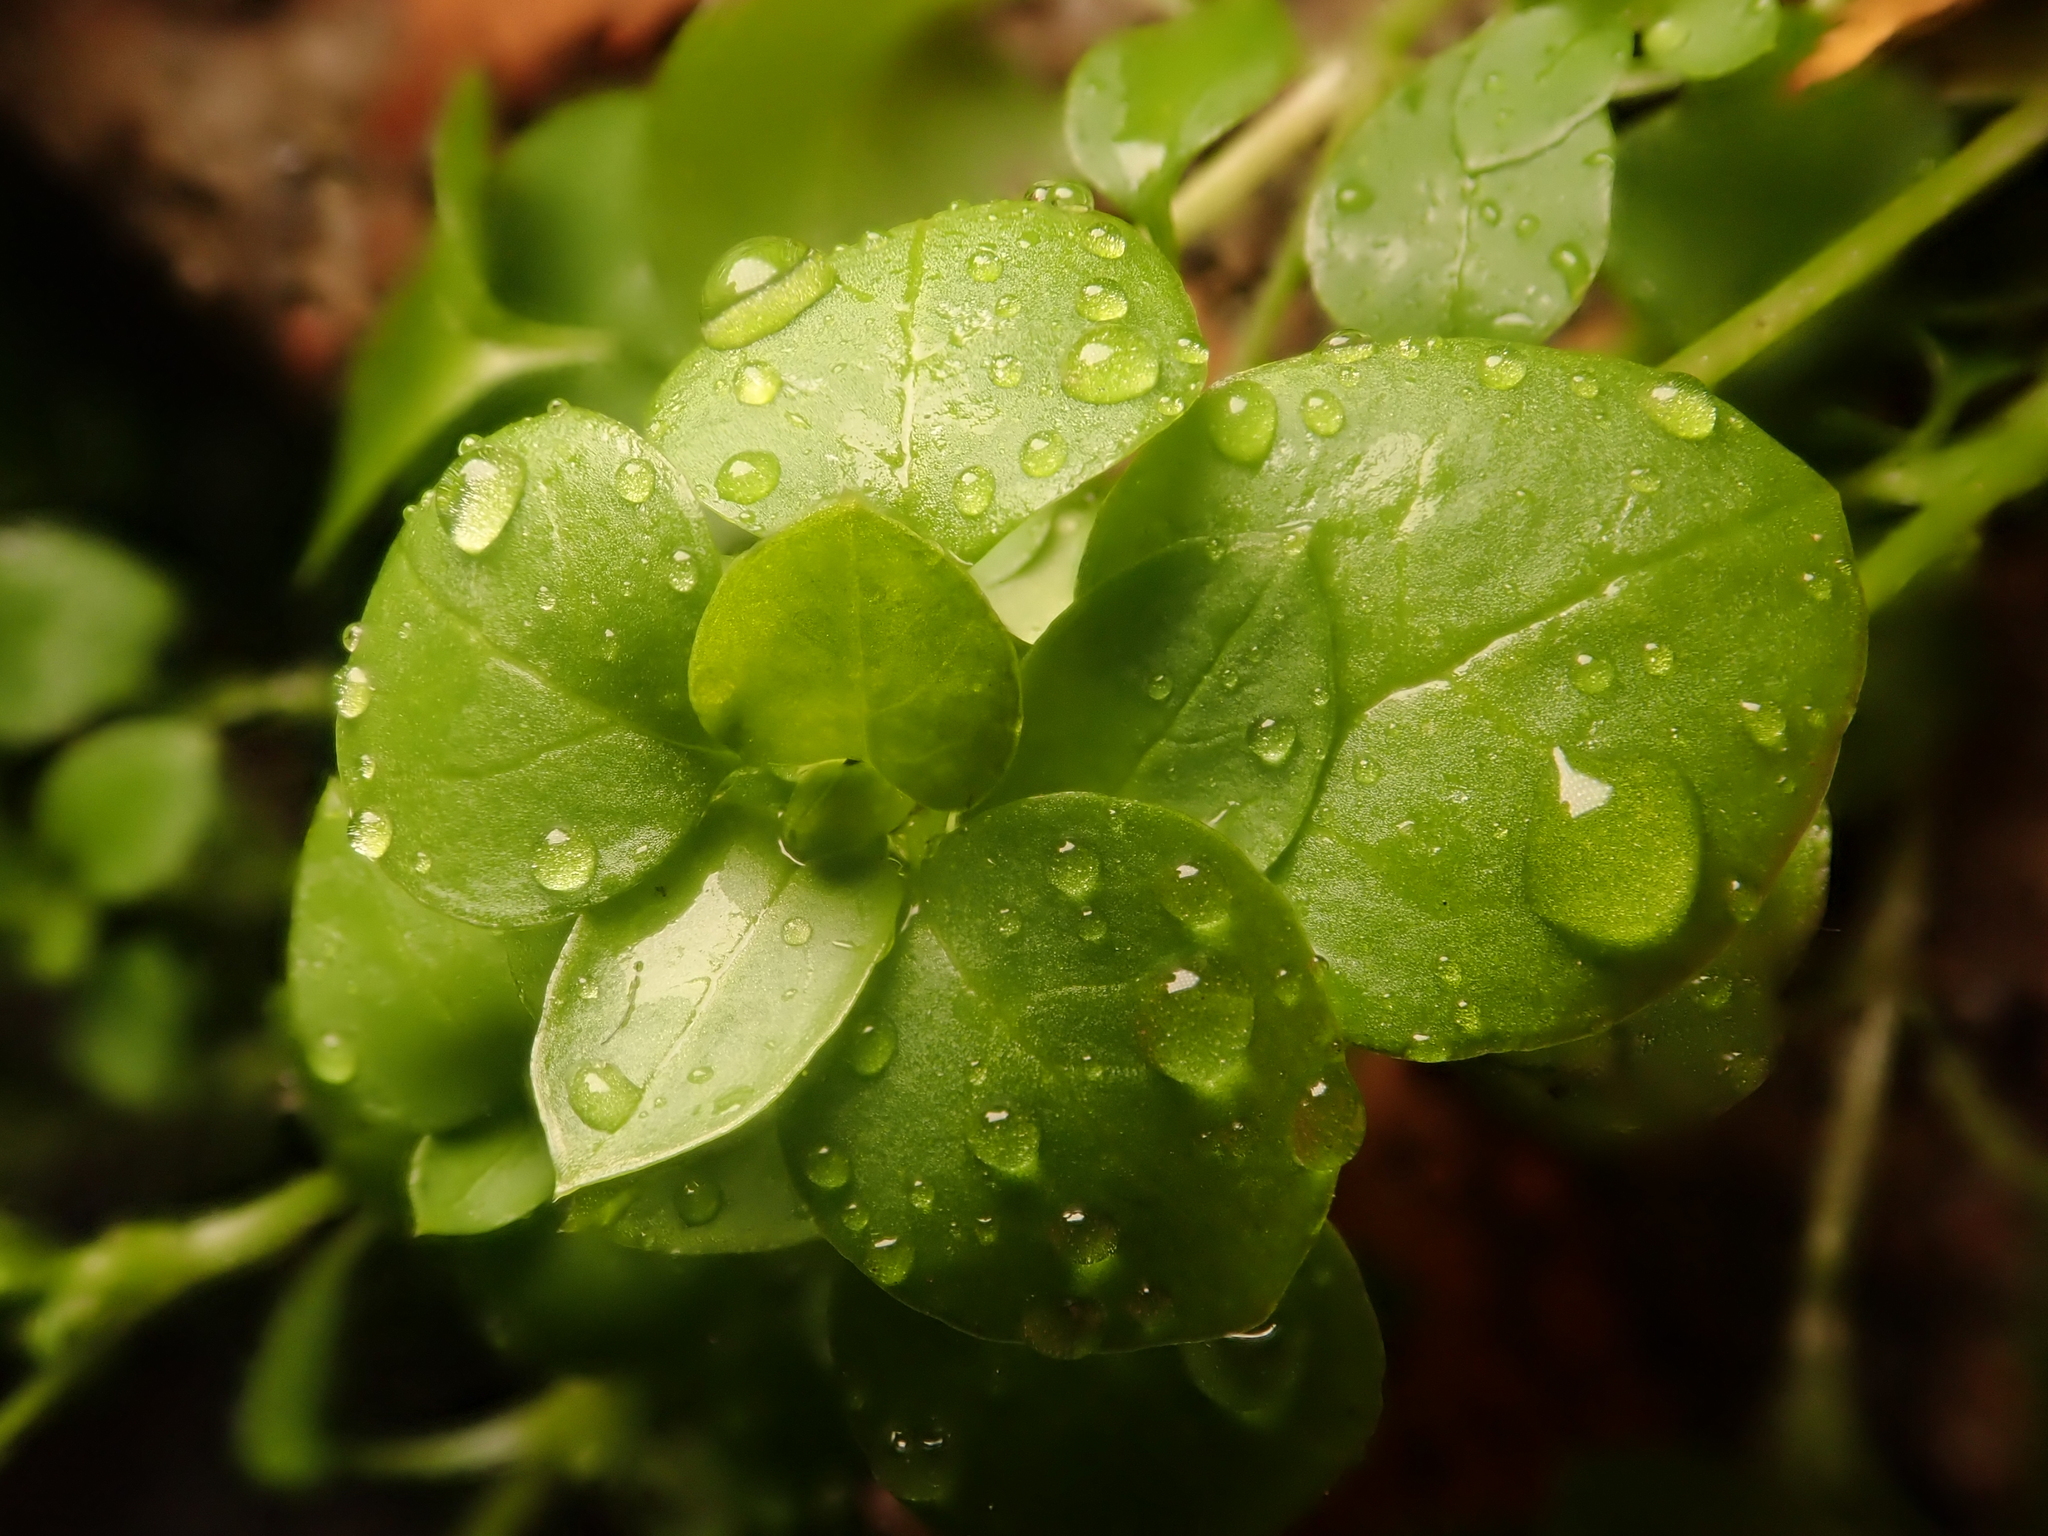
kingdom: Plantae
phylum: Tracheophyta
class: Magnoliopsida
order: Caryophyllales
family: Caryophyllaceae
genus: Stellaria
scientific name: Stellaria media
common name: Common chickweed
